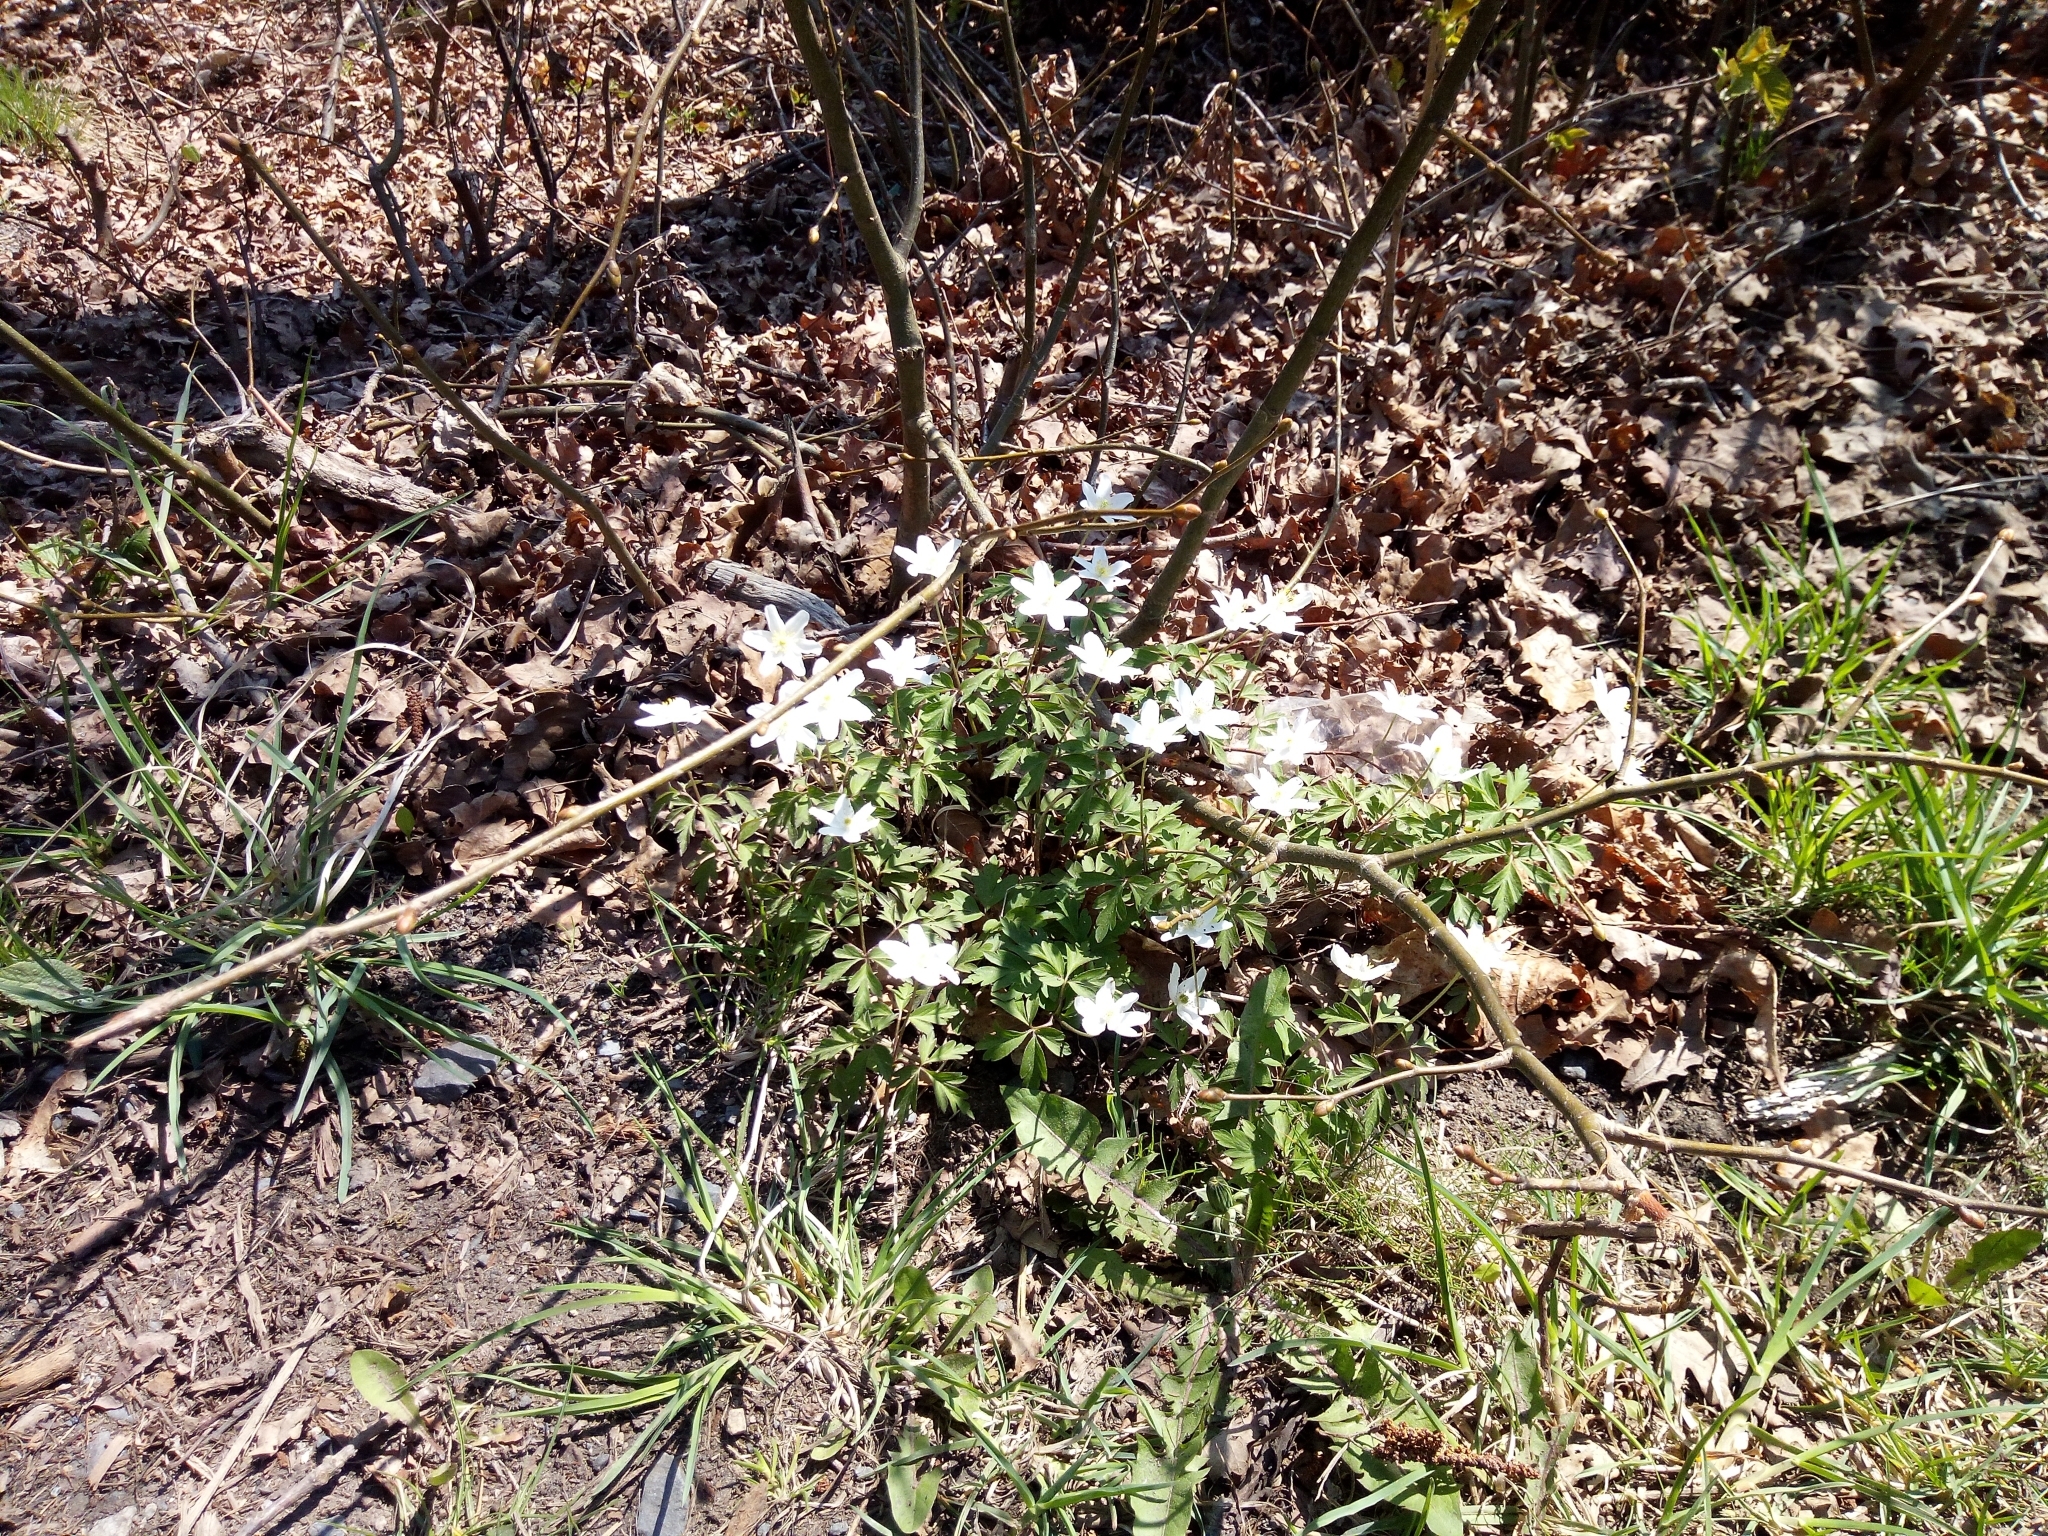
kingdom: Plantae
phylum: Tracheophyta
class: Magnoliopsida
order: Ranunculales
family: Ranunculaceae
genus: Anemone
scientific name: Anemone nemorosa
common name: Wood anemone
